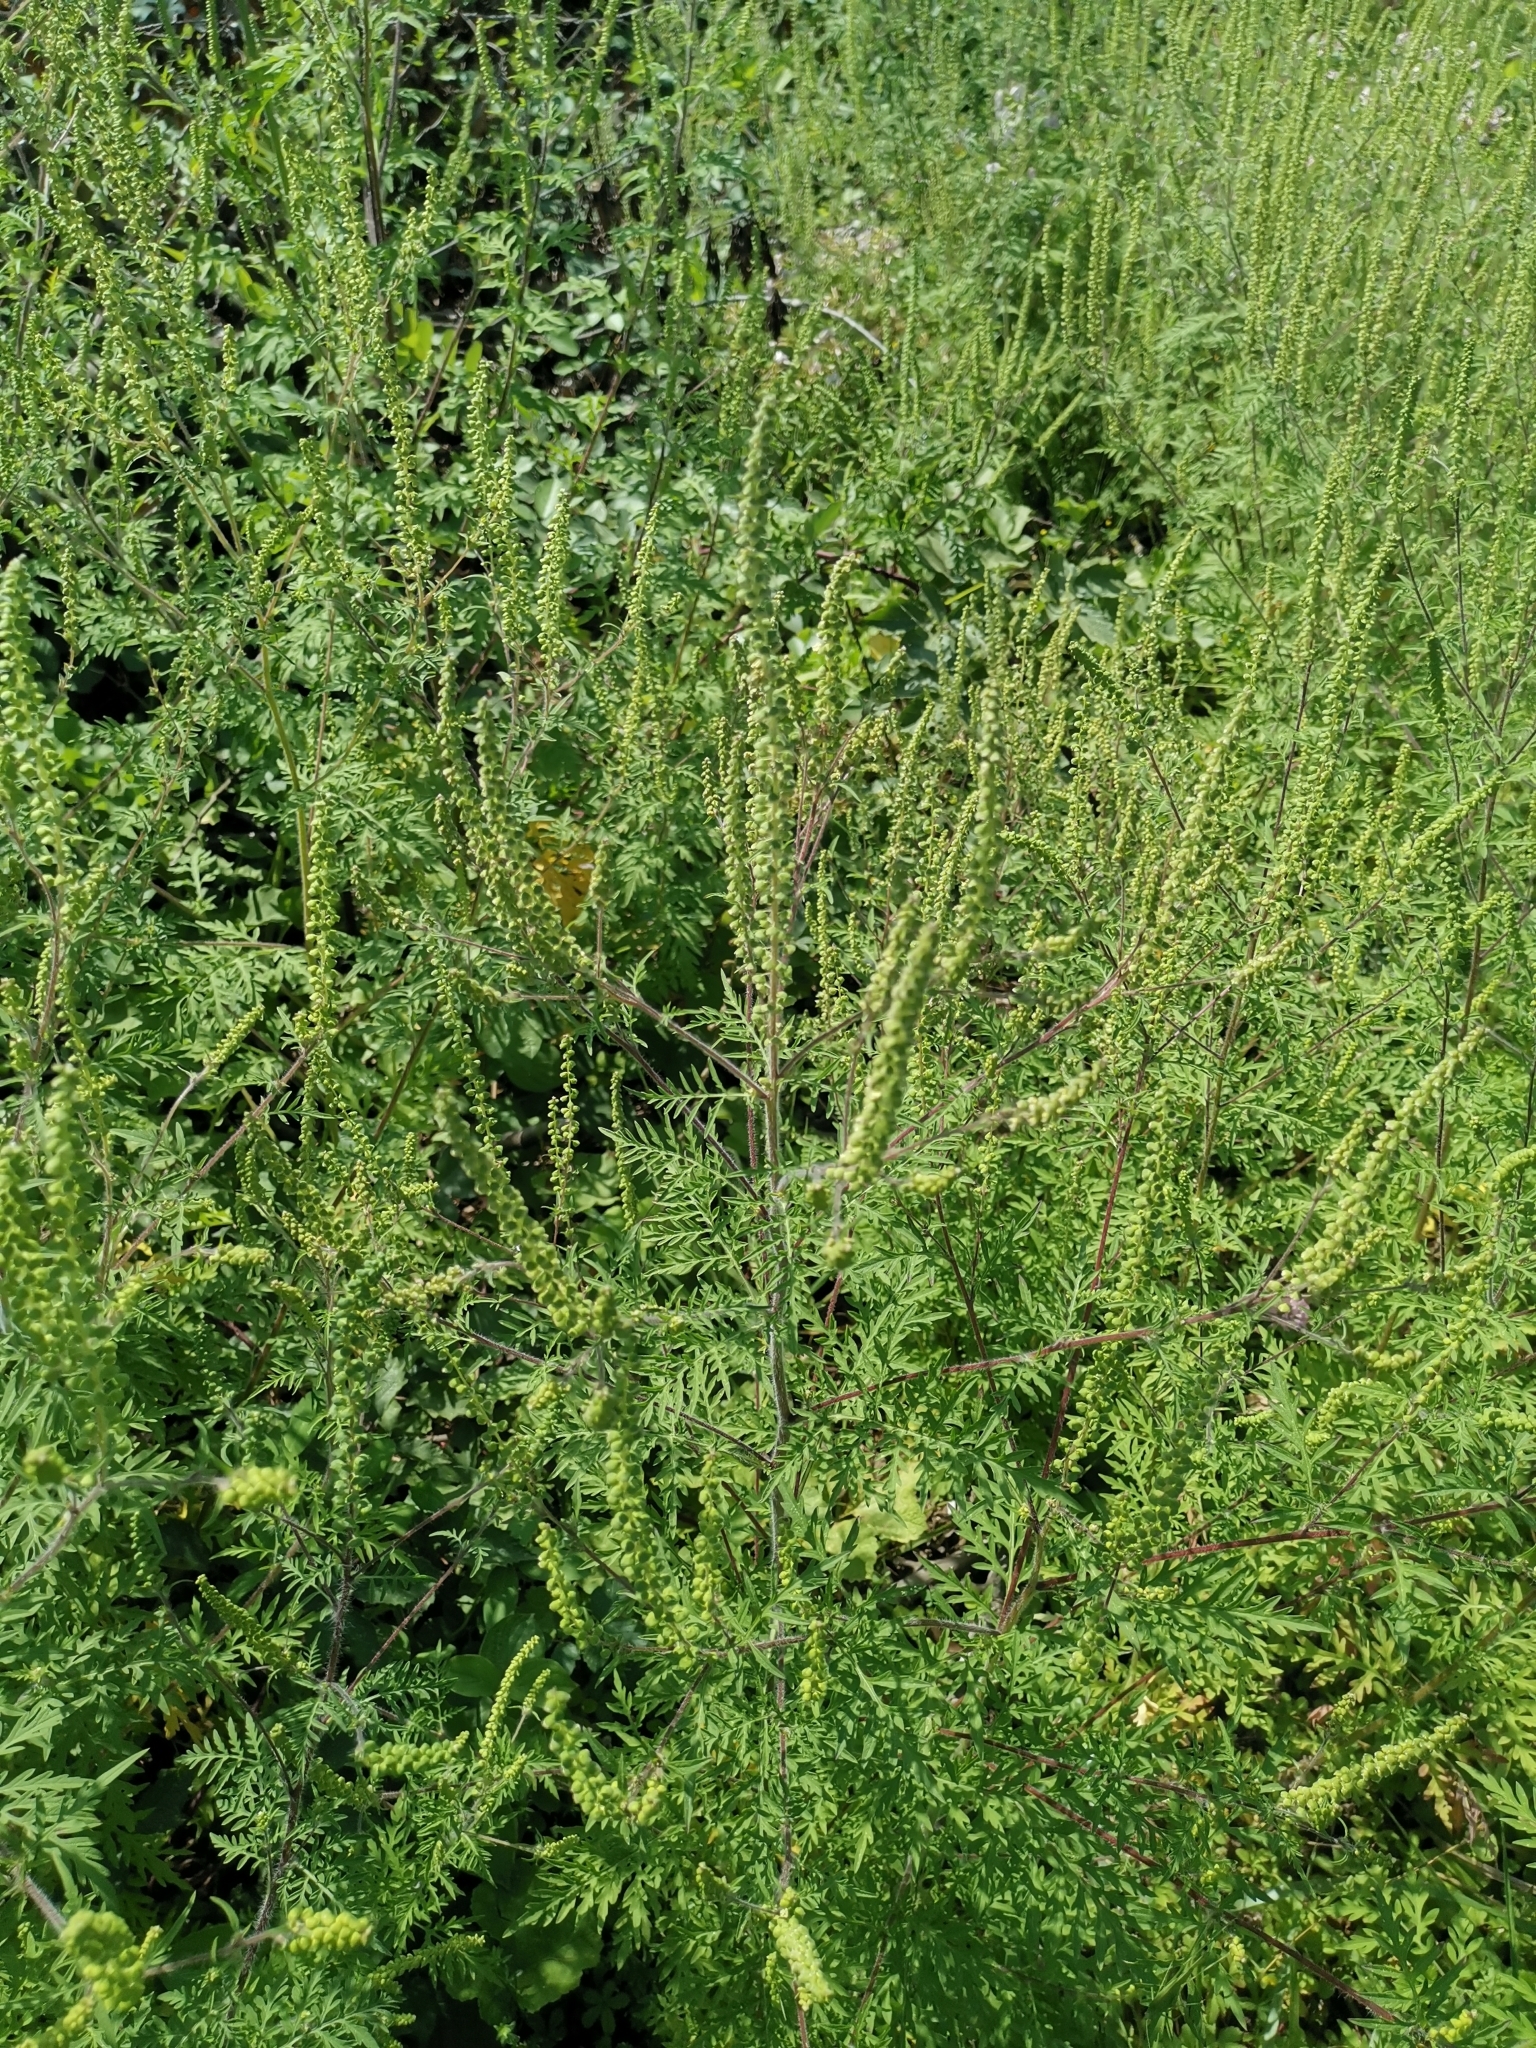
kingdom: Plantae
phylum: Tracheophyta
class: Magnoliopsida
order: Asterales
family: Asteraceae
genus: Ambrosia
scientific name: Ambrosia artemisiifolia
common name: Annual ragweed
